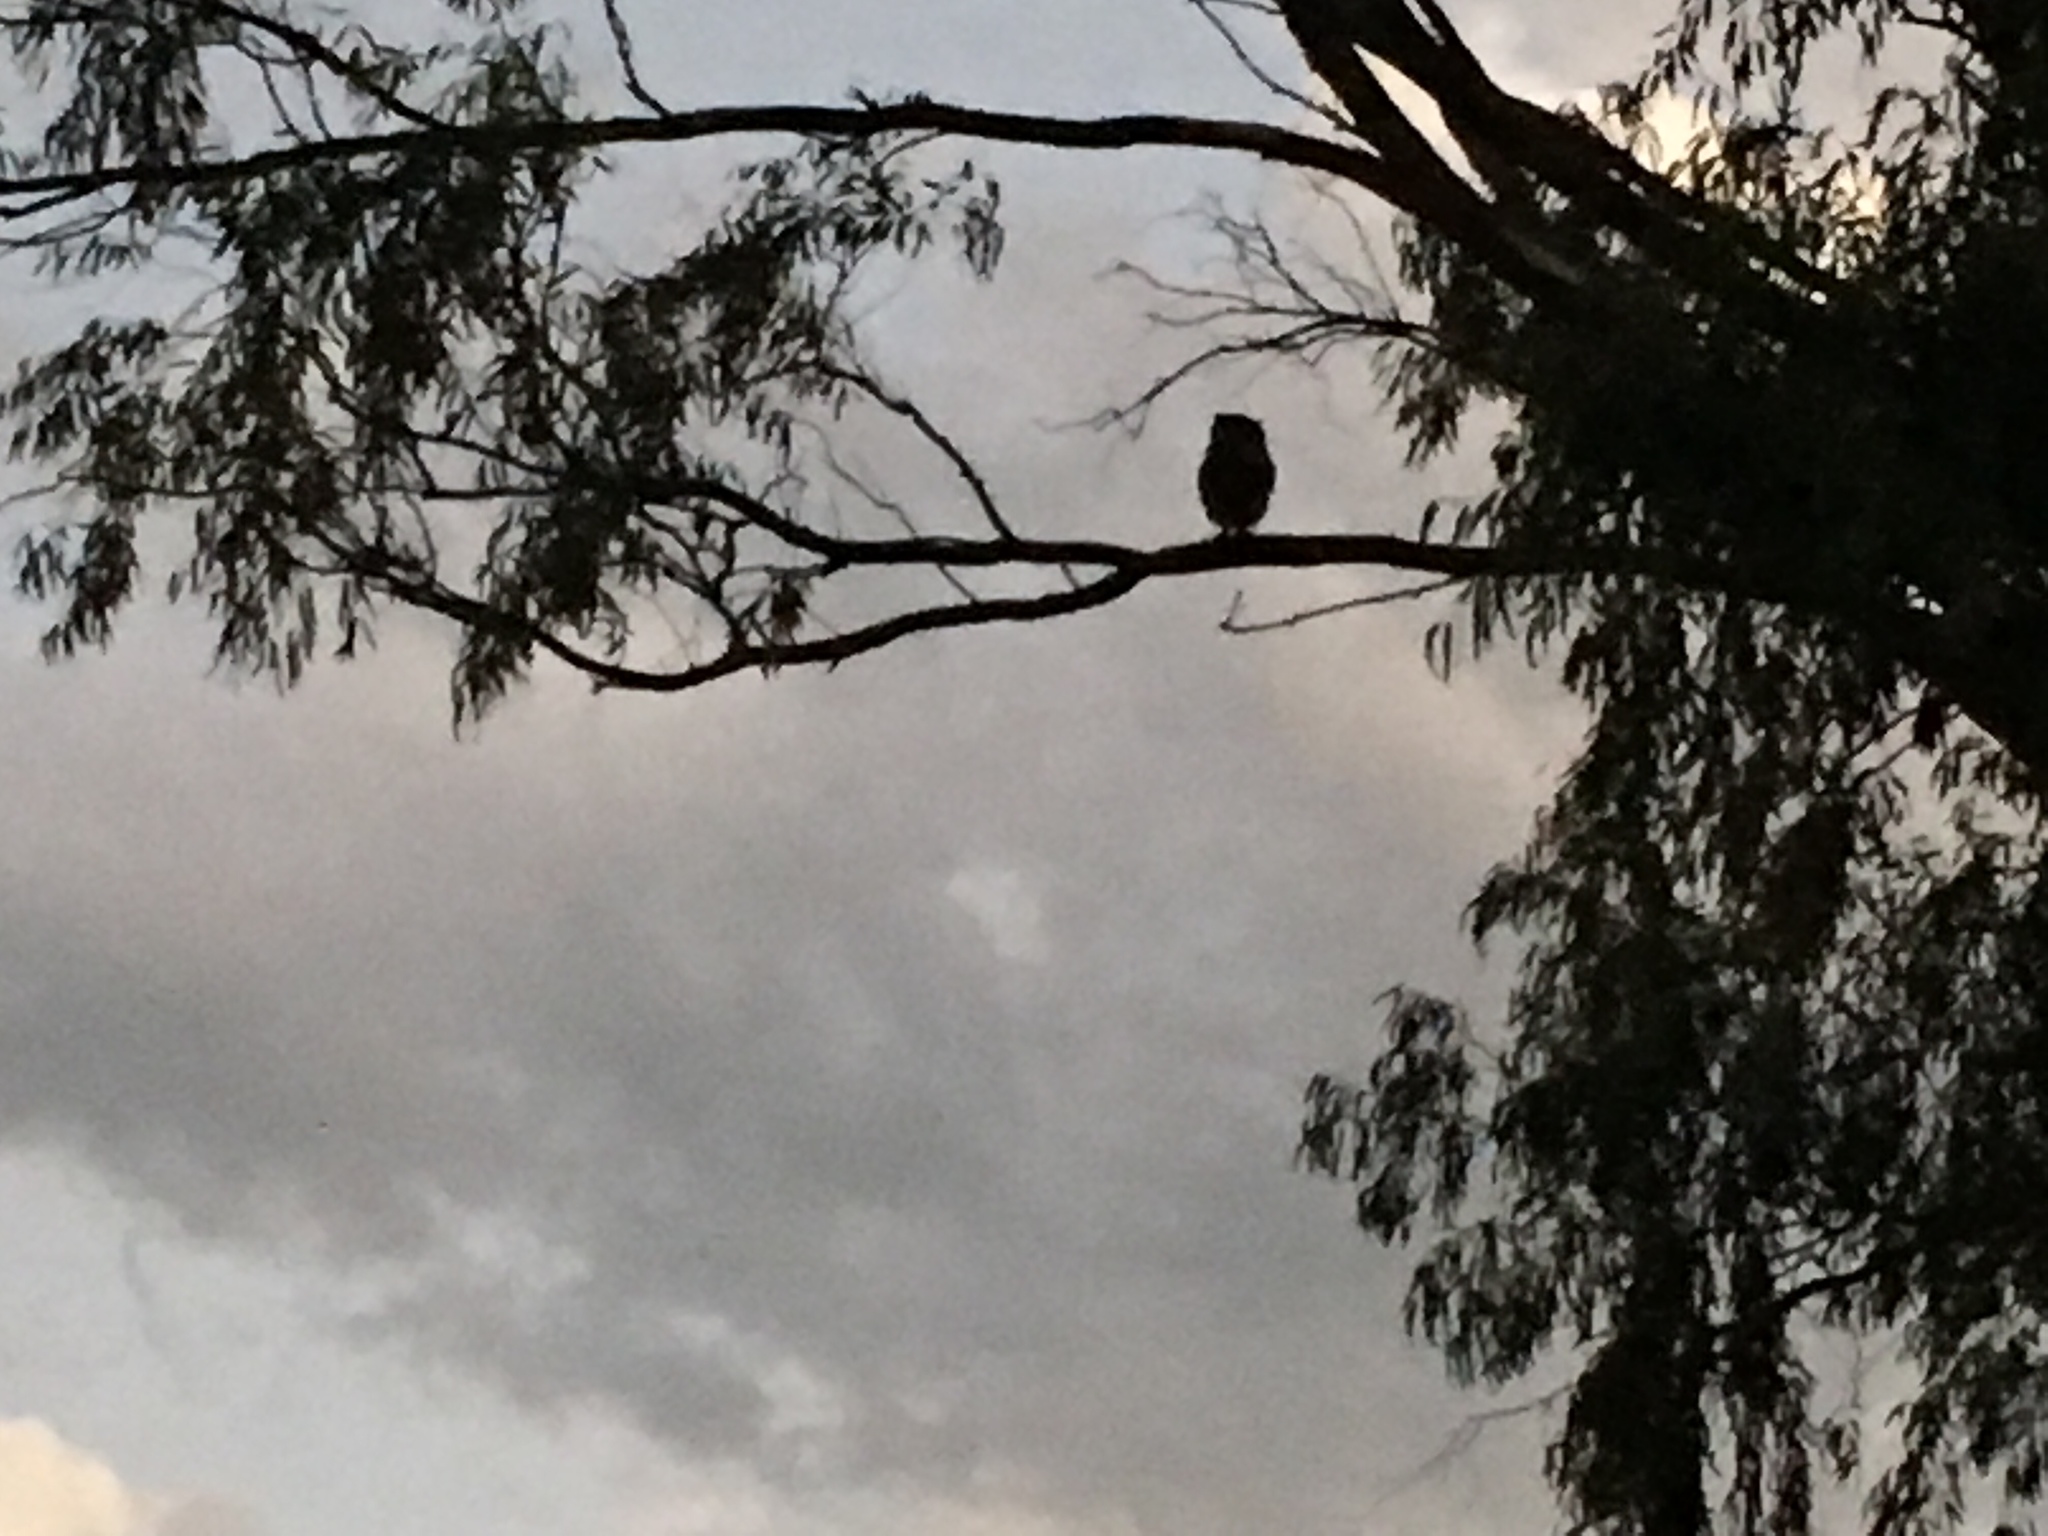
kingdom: Animalia
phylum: Chordata
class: Aves
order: Strigiformes
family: Strigidae
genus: Bubo
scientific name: Bubo africanus
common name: Spotted eagle-owl
